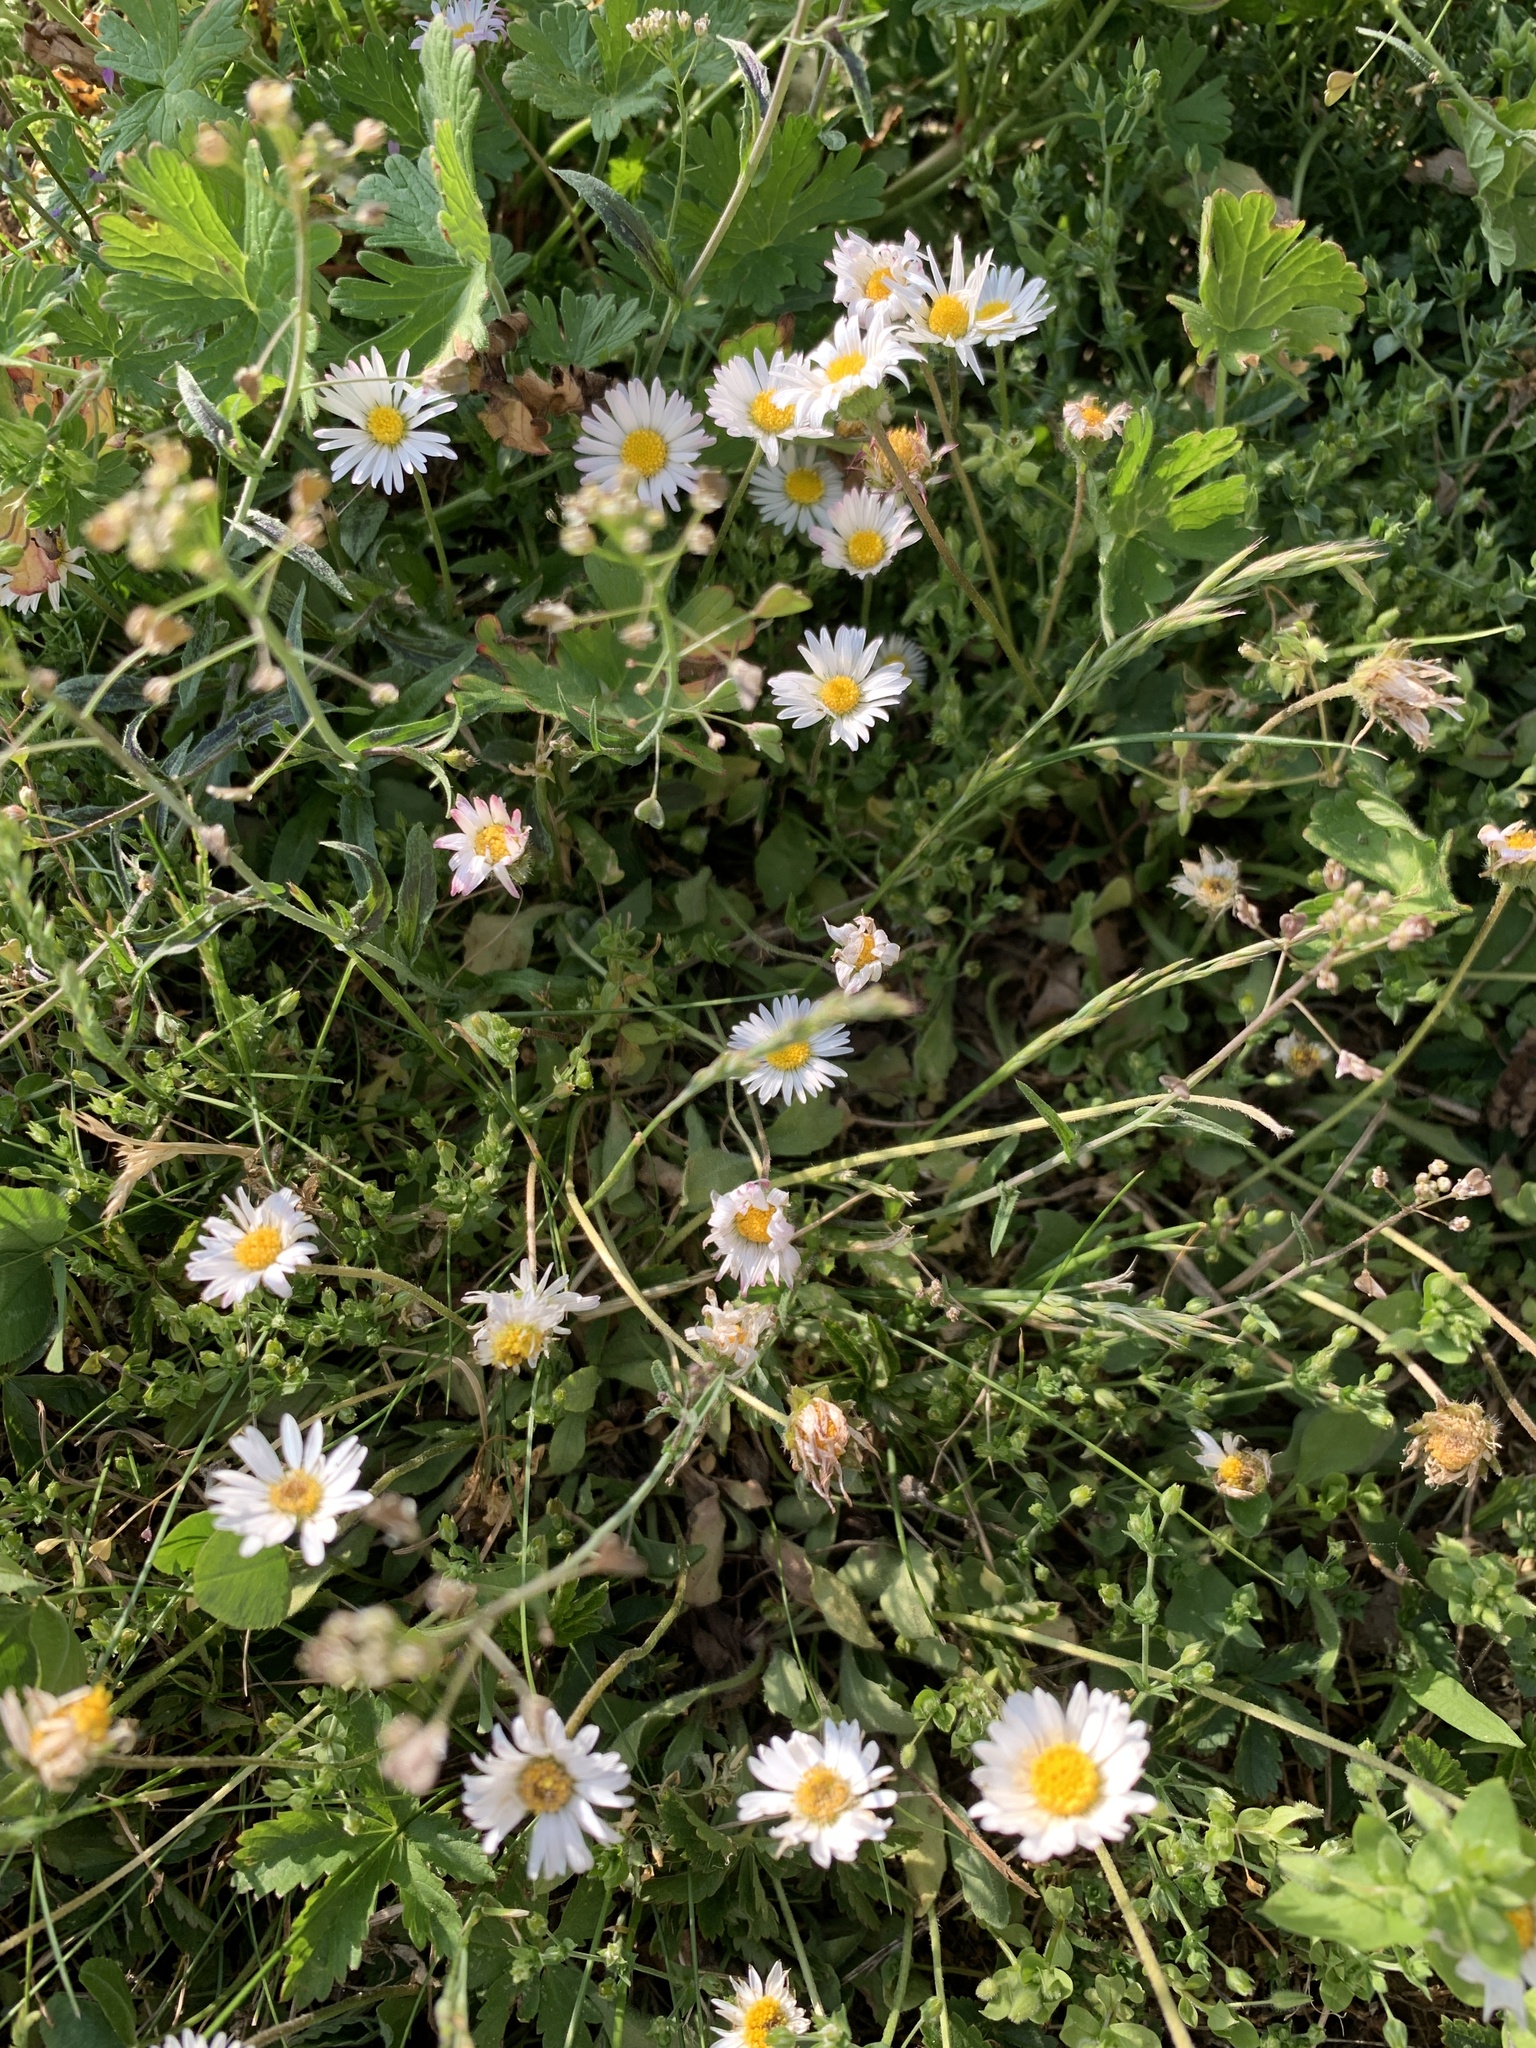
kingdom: Plantae
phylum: Tracheophyta
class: Magnoliopsida
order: Asterales
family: Asteraceae
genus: Bellis
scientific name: Bellis perennis
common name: Lawndaisy
